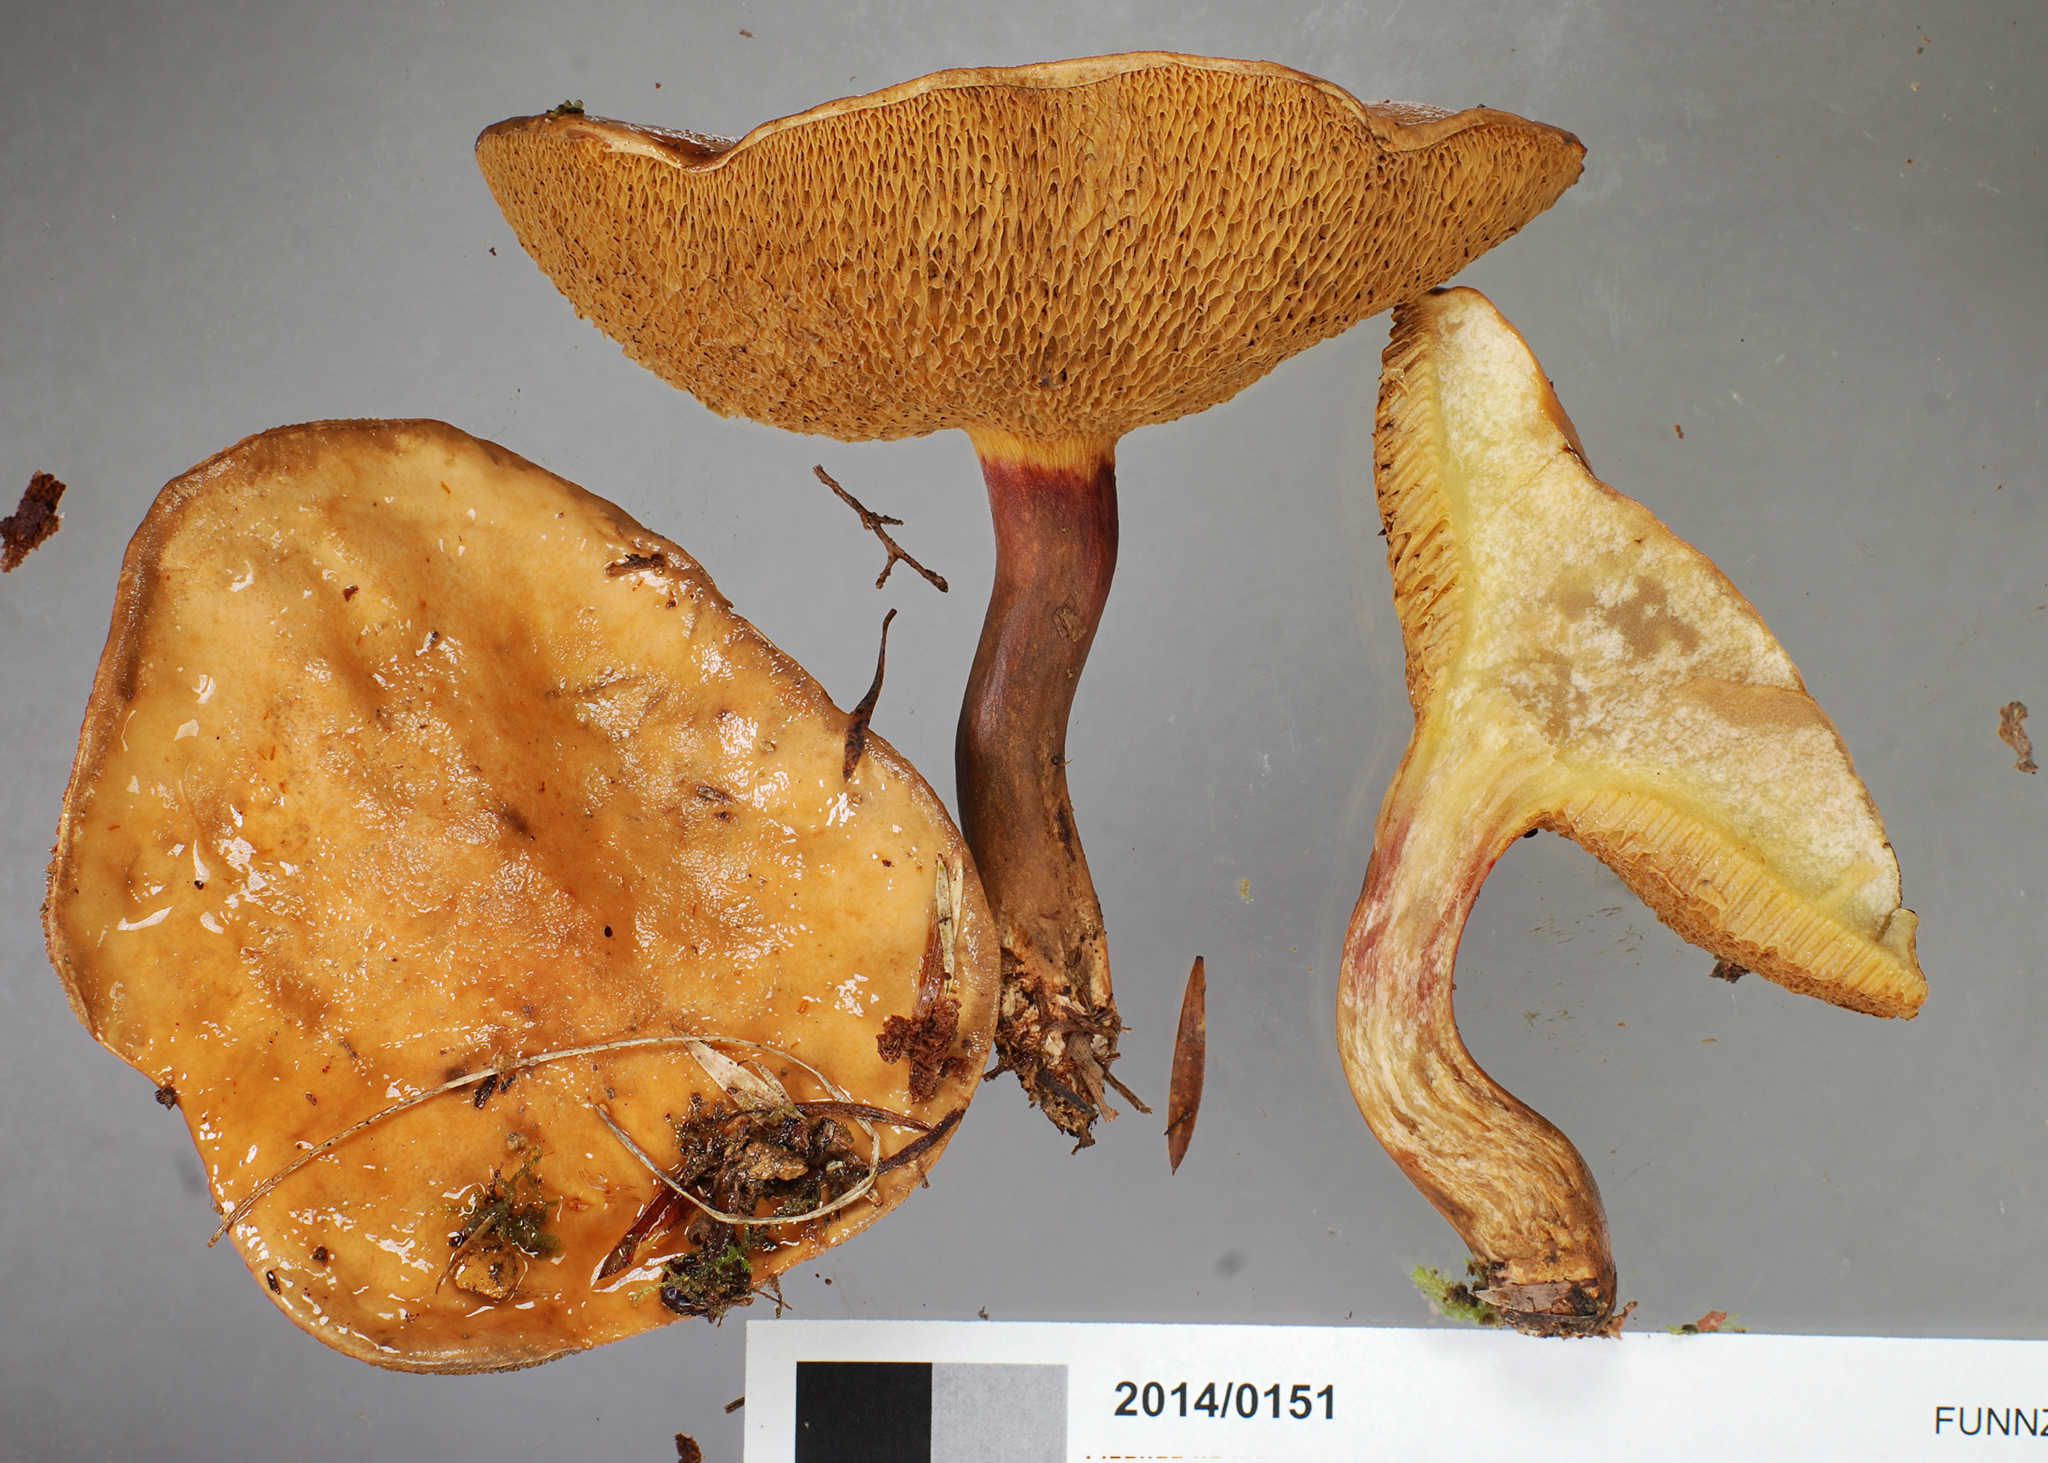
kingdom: Fungi
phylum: Basidiomycota
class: Agaricomycetes
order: Boletales
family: Suillaceae
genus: Suillus
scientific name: Suillus bovinus
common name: Bovine bolete
